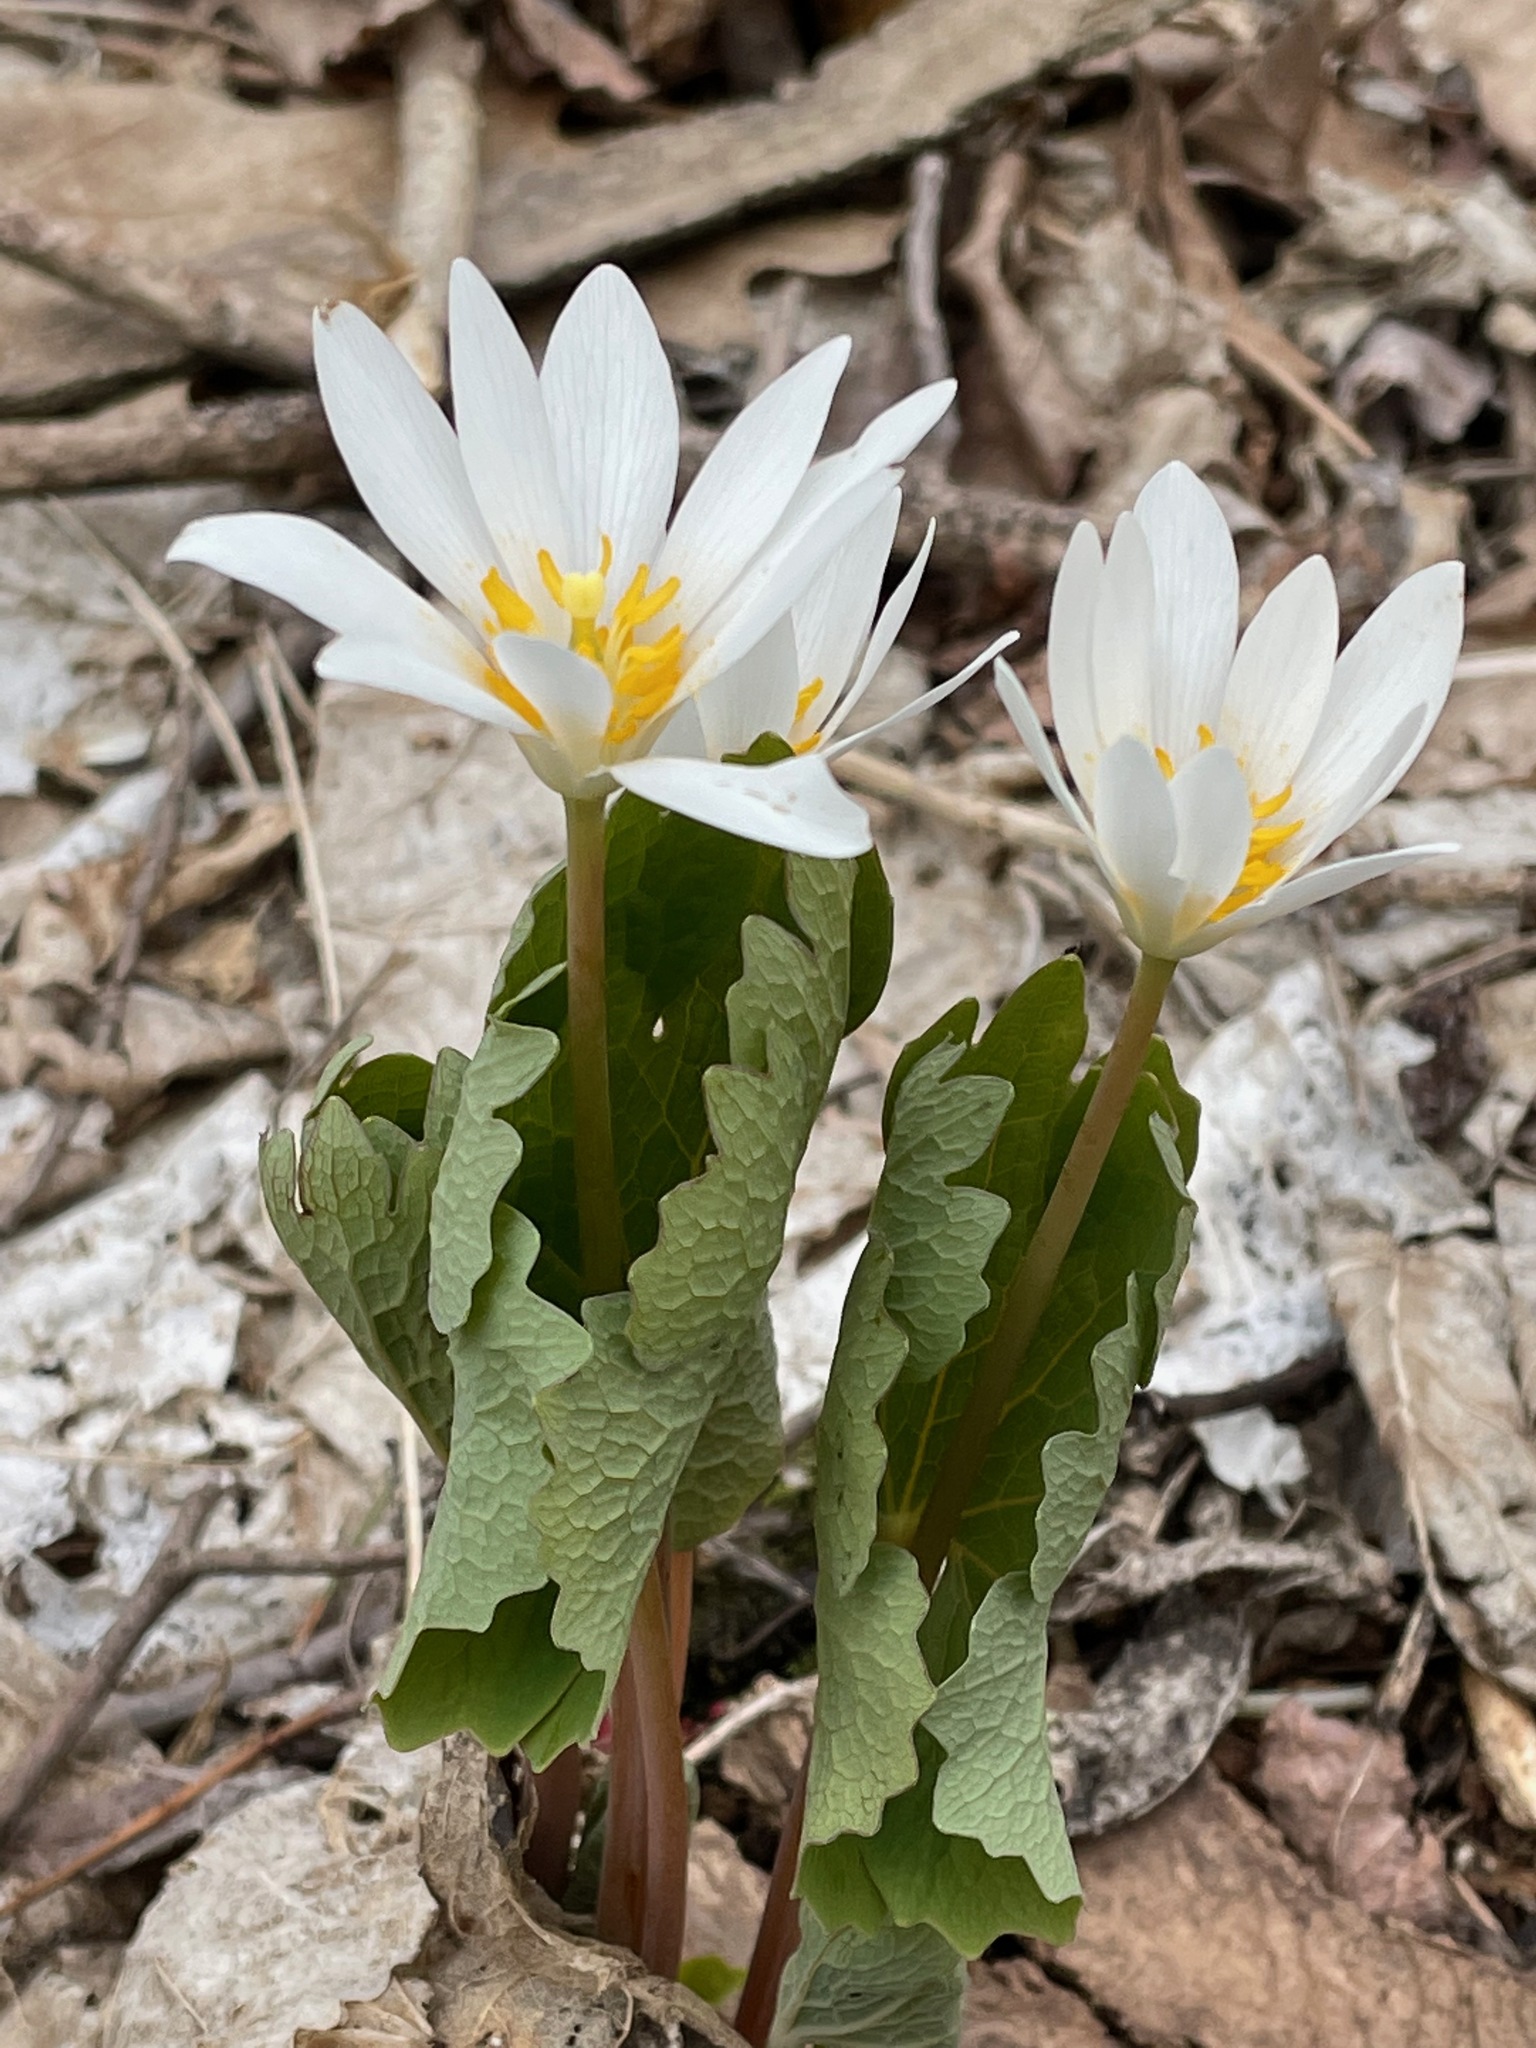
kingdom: Plantae
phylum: Tracheophyta
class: Magnoliopsida
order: Ranunculales
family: Papaveraceae
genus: Sanguinaria
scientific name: Sanguinaria canadensis
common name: Bloodroot
